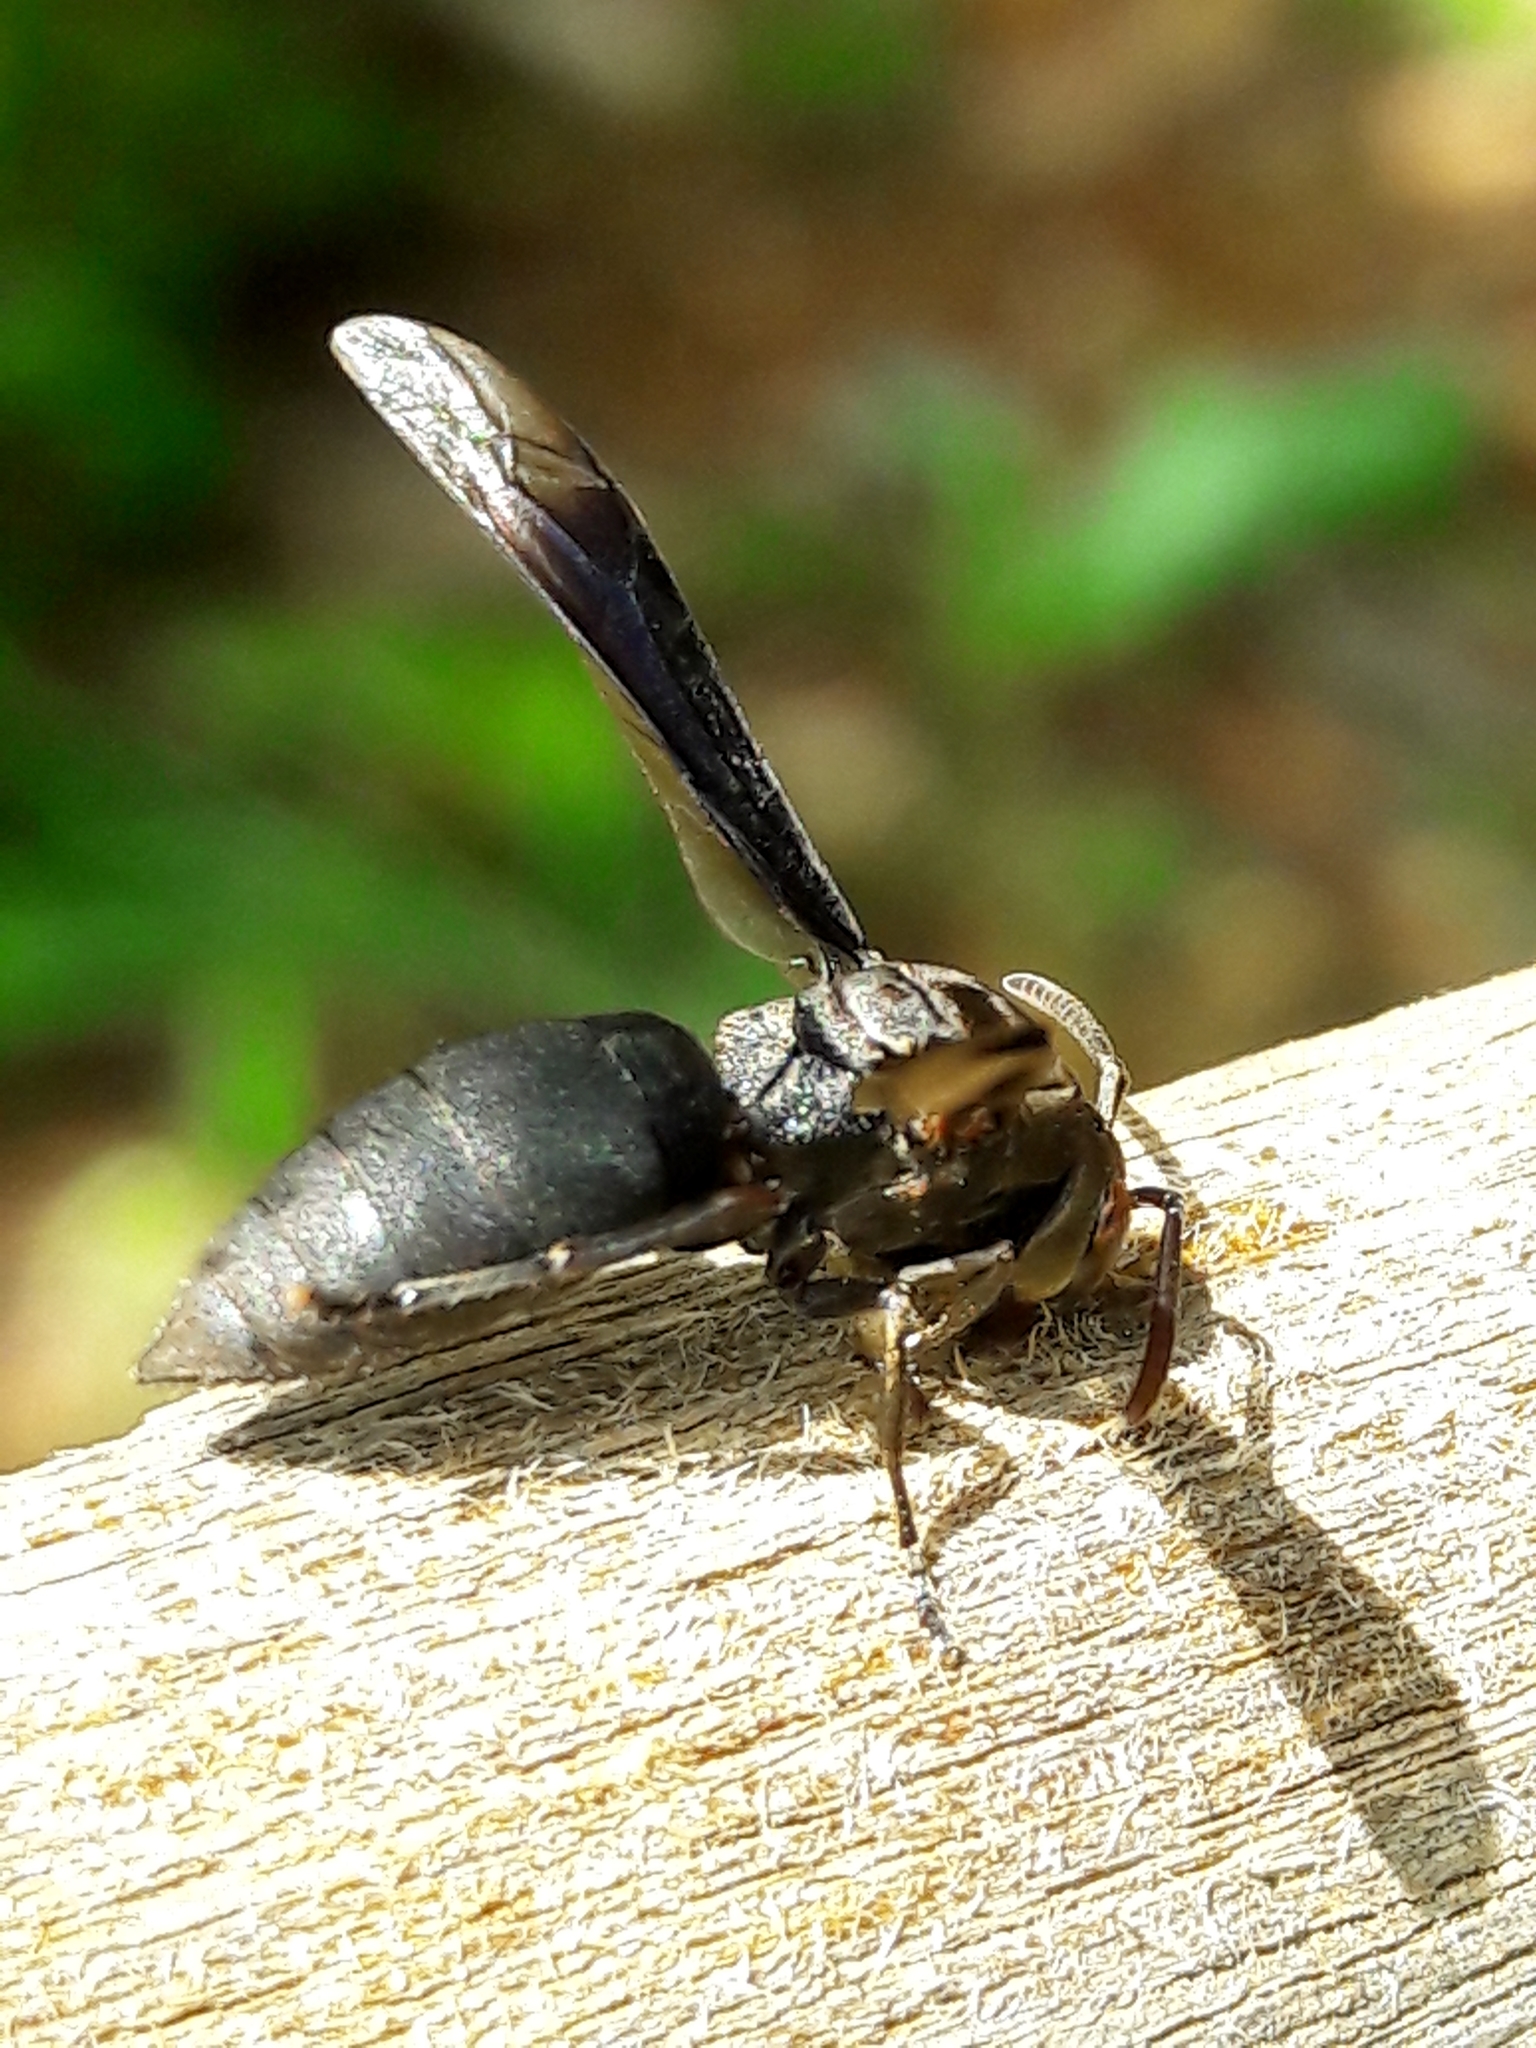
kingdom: Animalia
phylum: Arthropoda
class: Insecta
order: Hymenoptera
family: Vespidae
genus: Parachartergus
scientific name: Parachartergus fraternus
